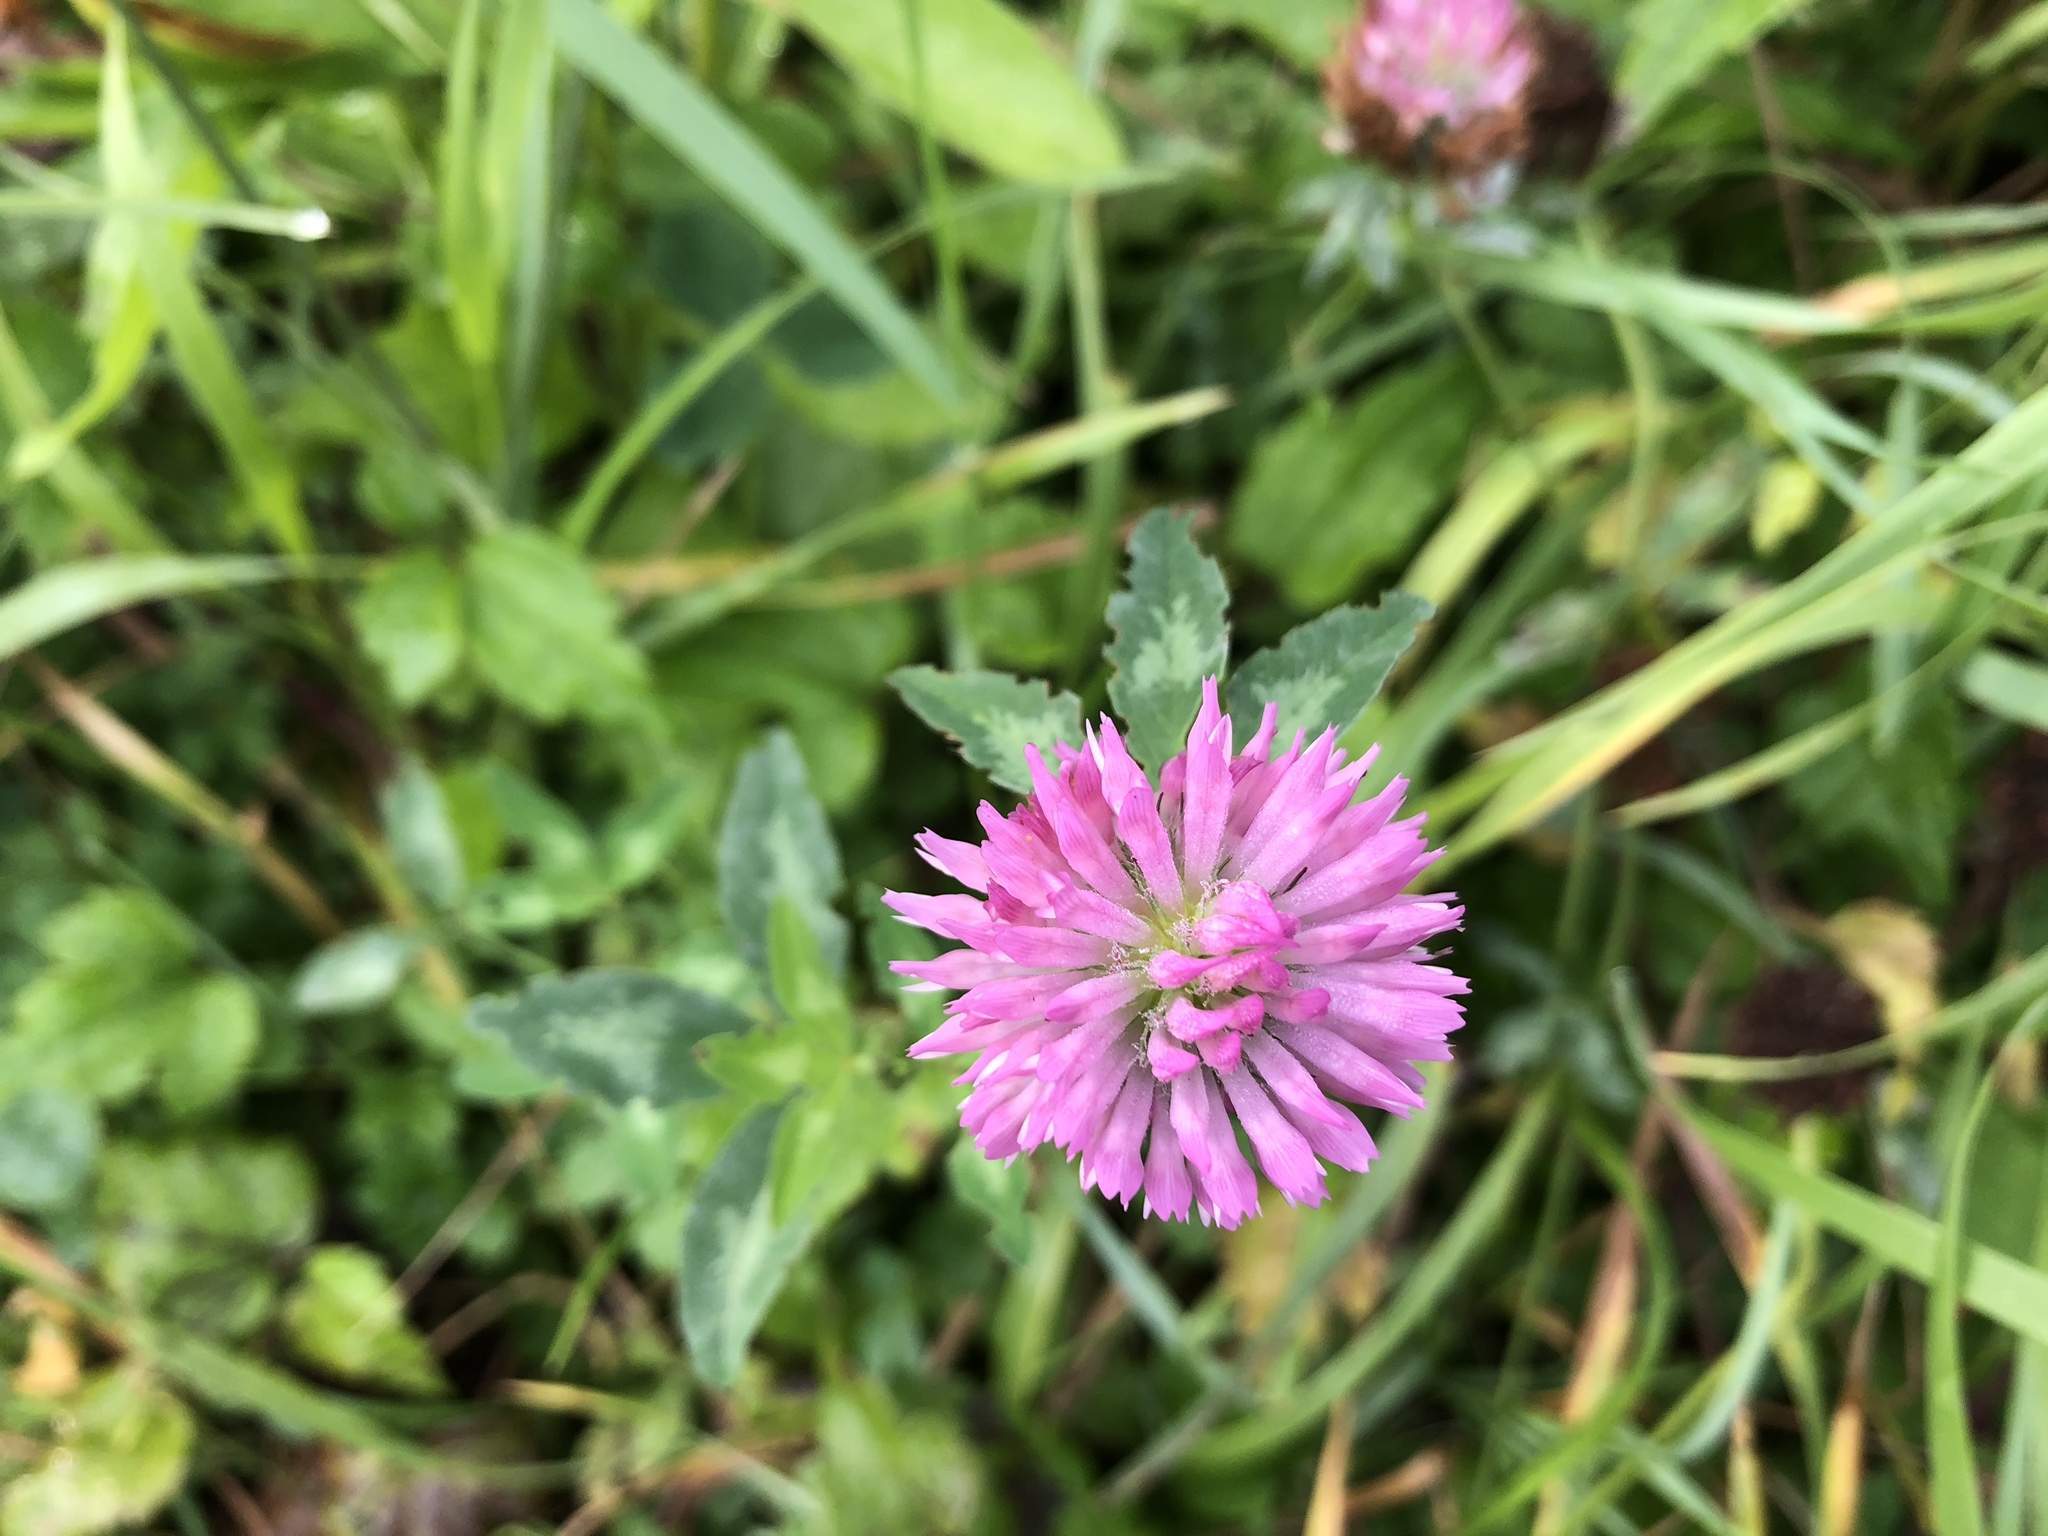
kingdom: Plantae
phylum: Tracheophyta
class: Magnoliopsida
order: Fabales
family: Fabaceae
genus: Trifolium
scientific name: Trifolium pratense
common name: Red clover
